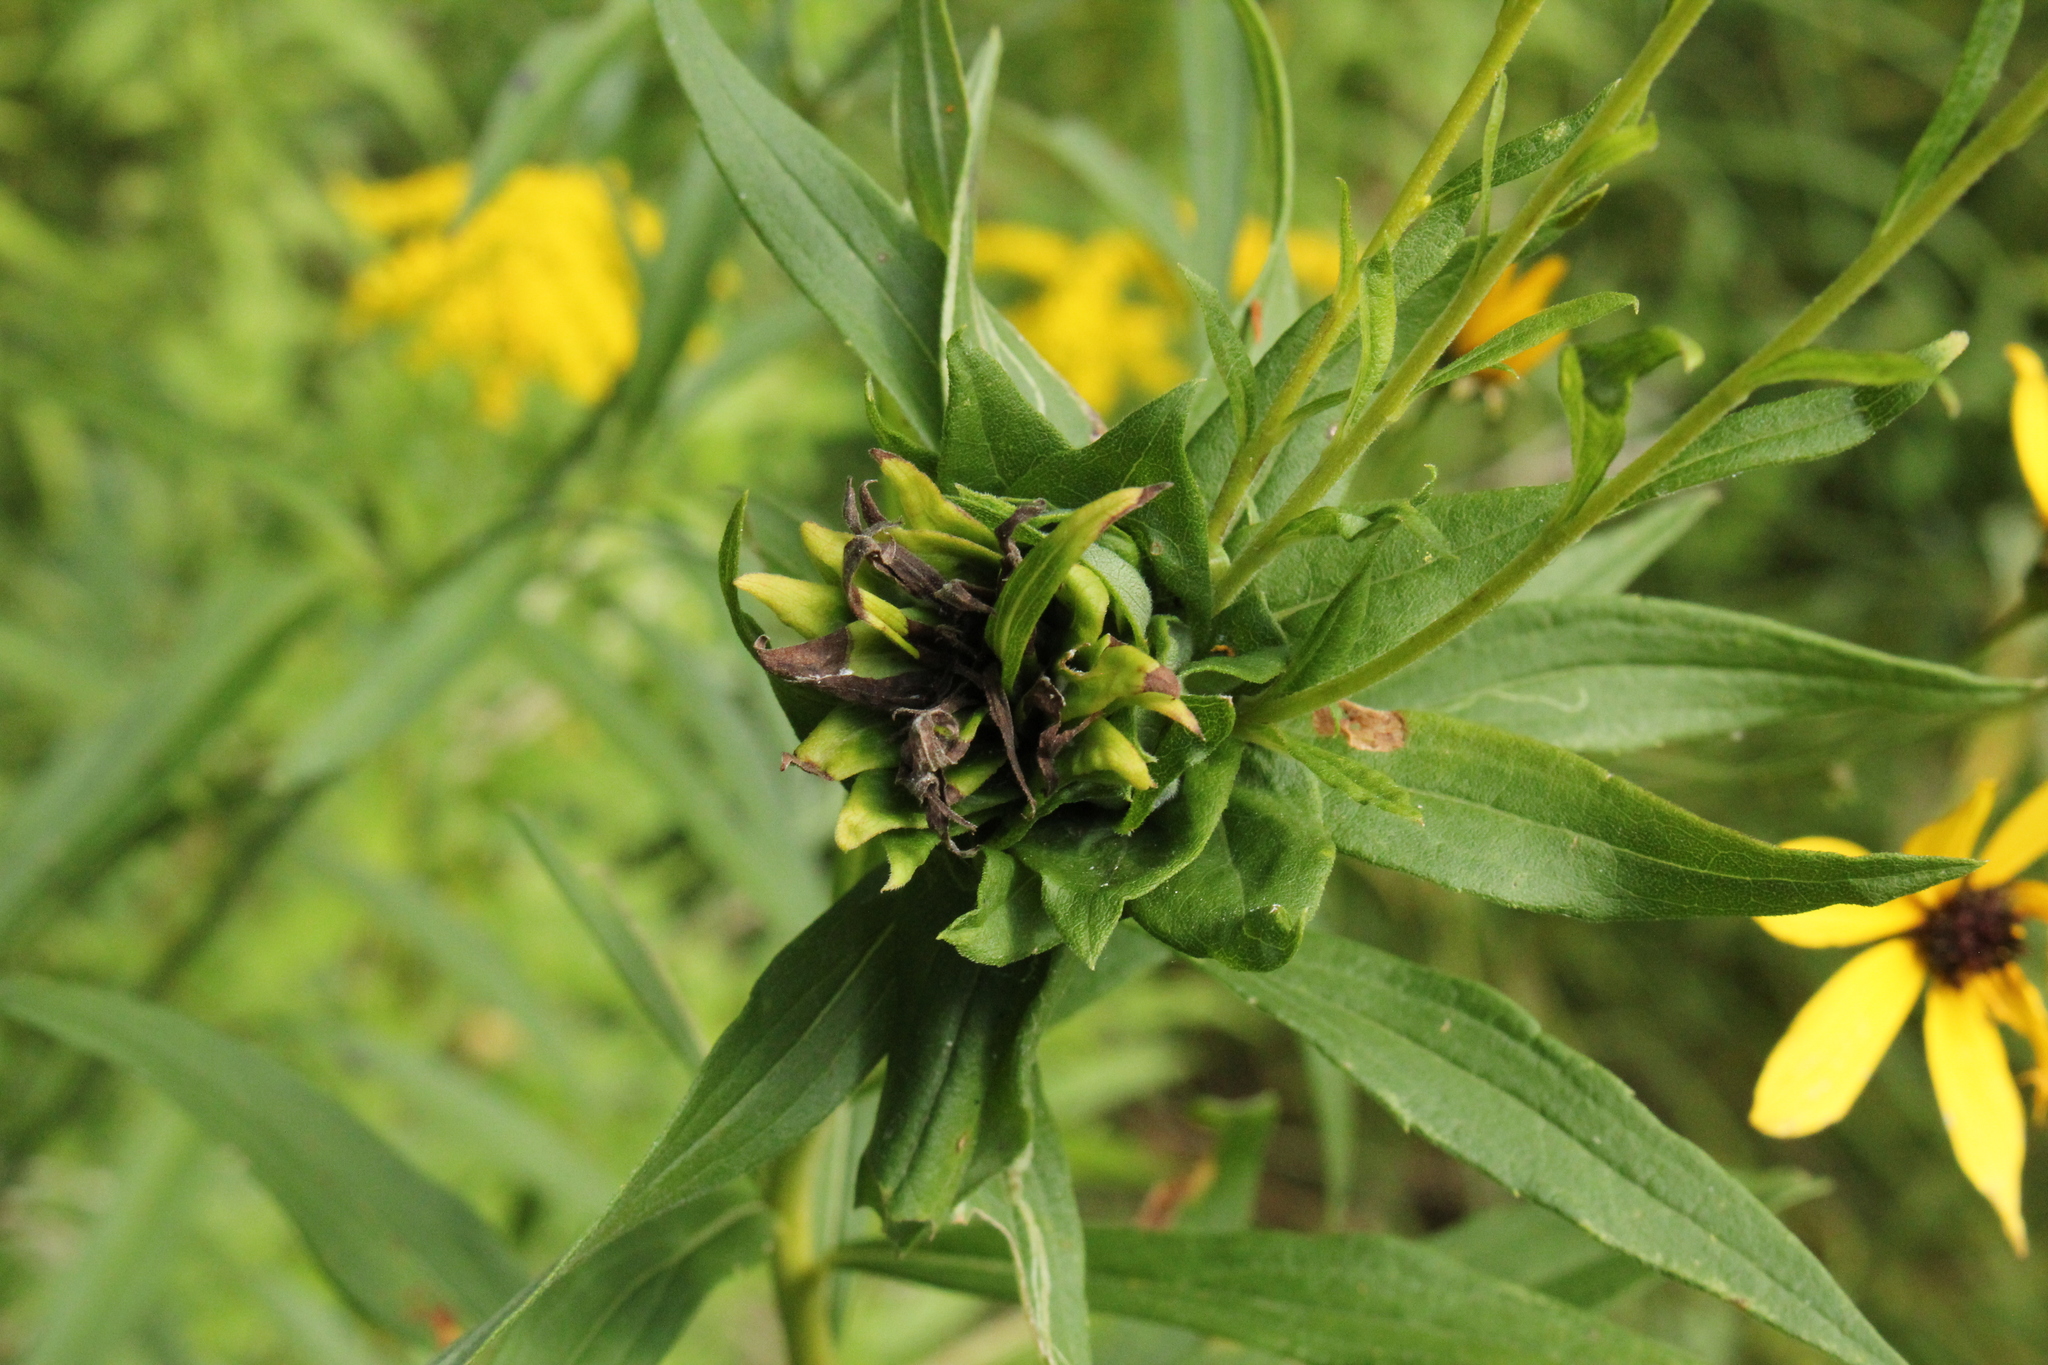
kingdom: Animalia
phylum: Arthropoda
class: Insecta
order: Diptera
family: Cecidomyiidae
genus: Rhopalomyia
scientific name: Rhopalomyia solidaginis
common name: Goldenrod bunch gall midge
